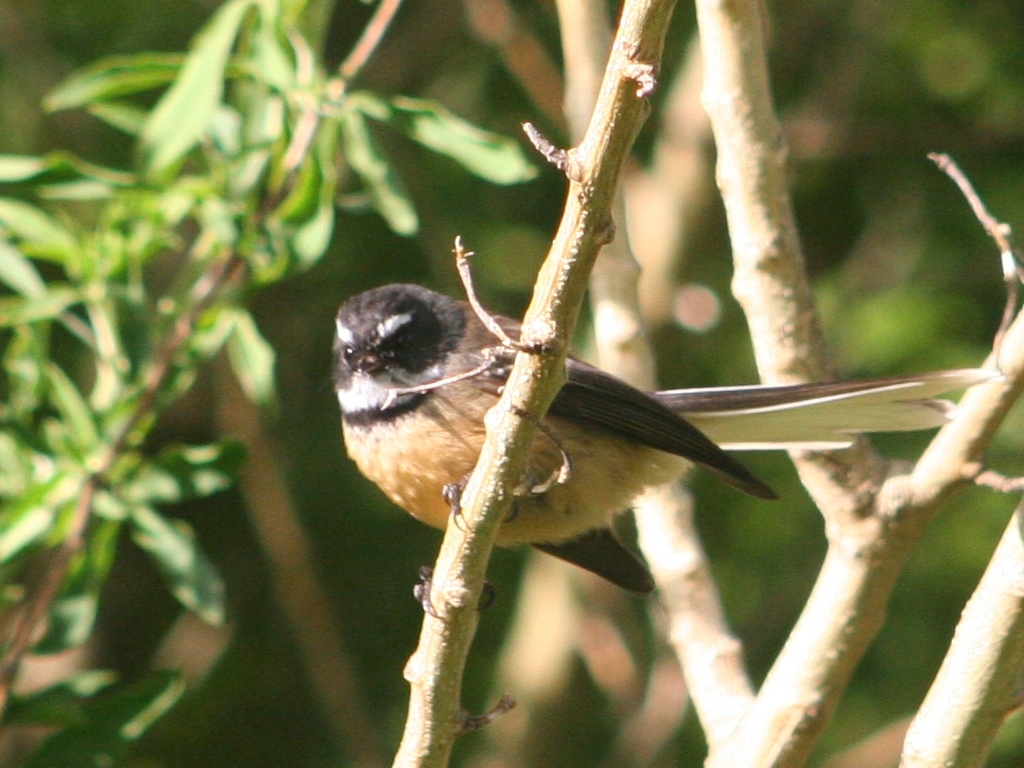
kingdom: Animalia
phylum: Chordata
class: Aves
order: Passeriformes
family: Rhipiduridae
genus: Rhipidura
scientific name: Rhipidura fuliginosa
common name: New zealand fantail
